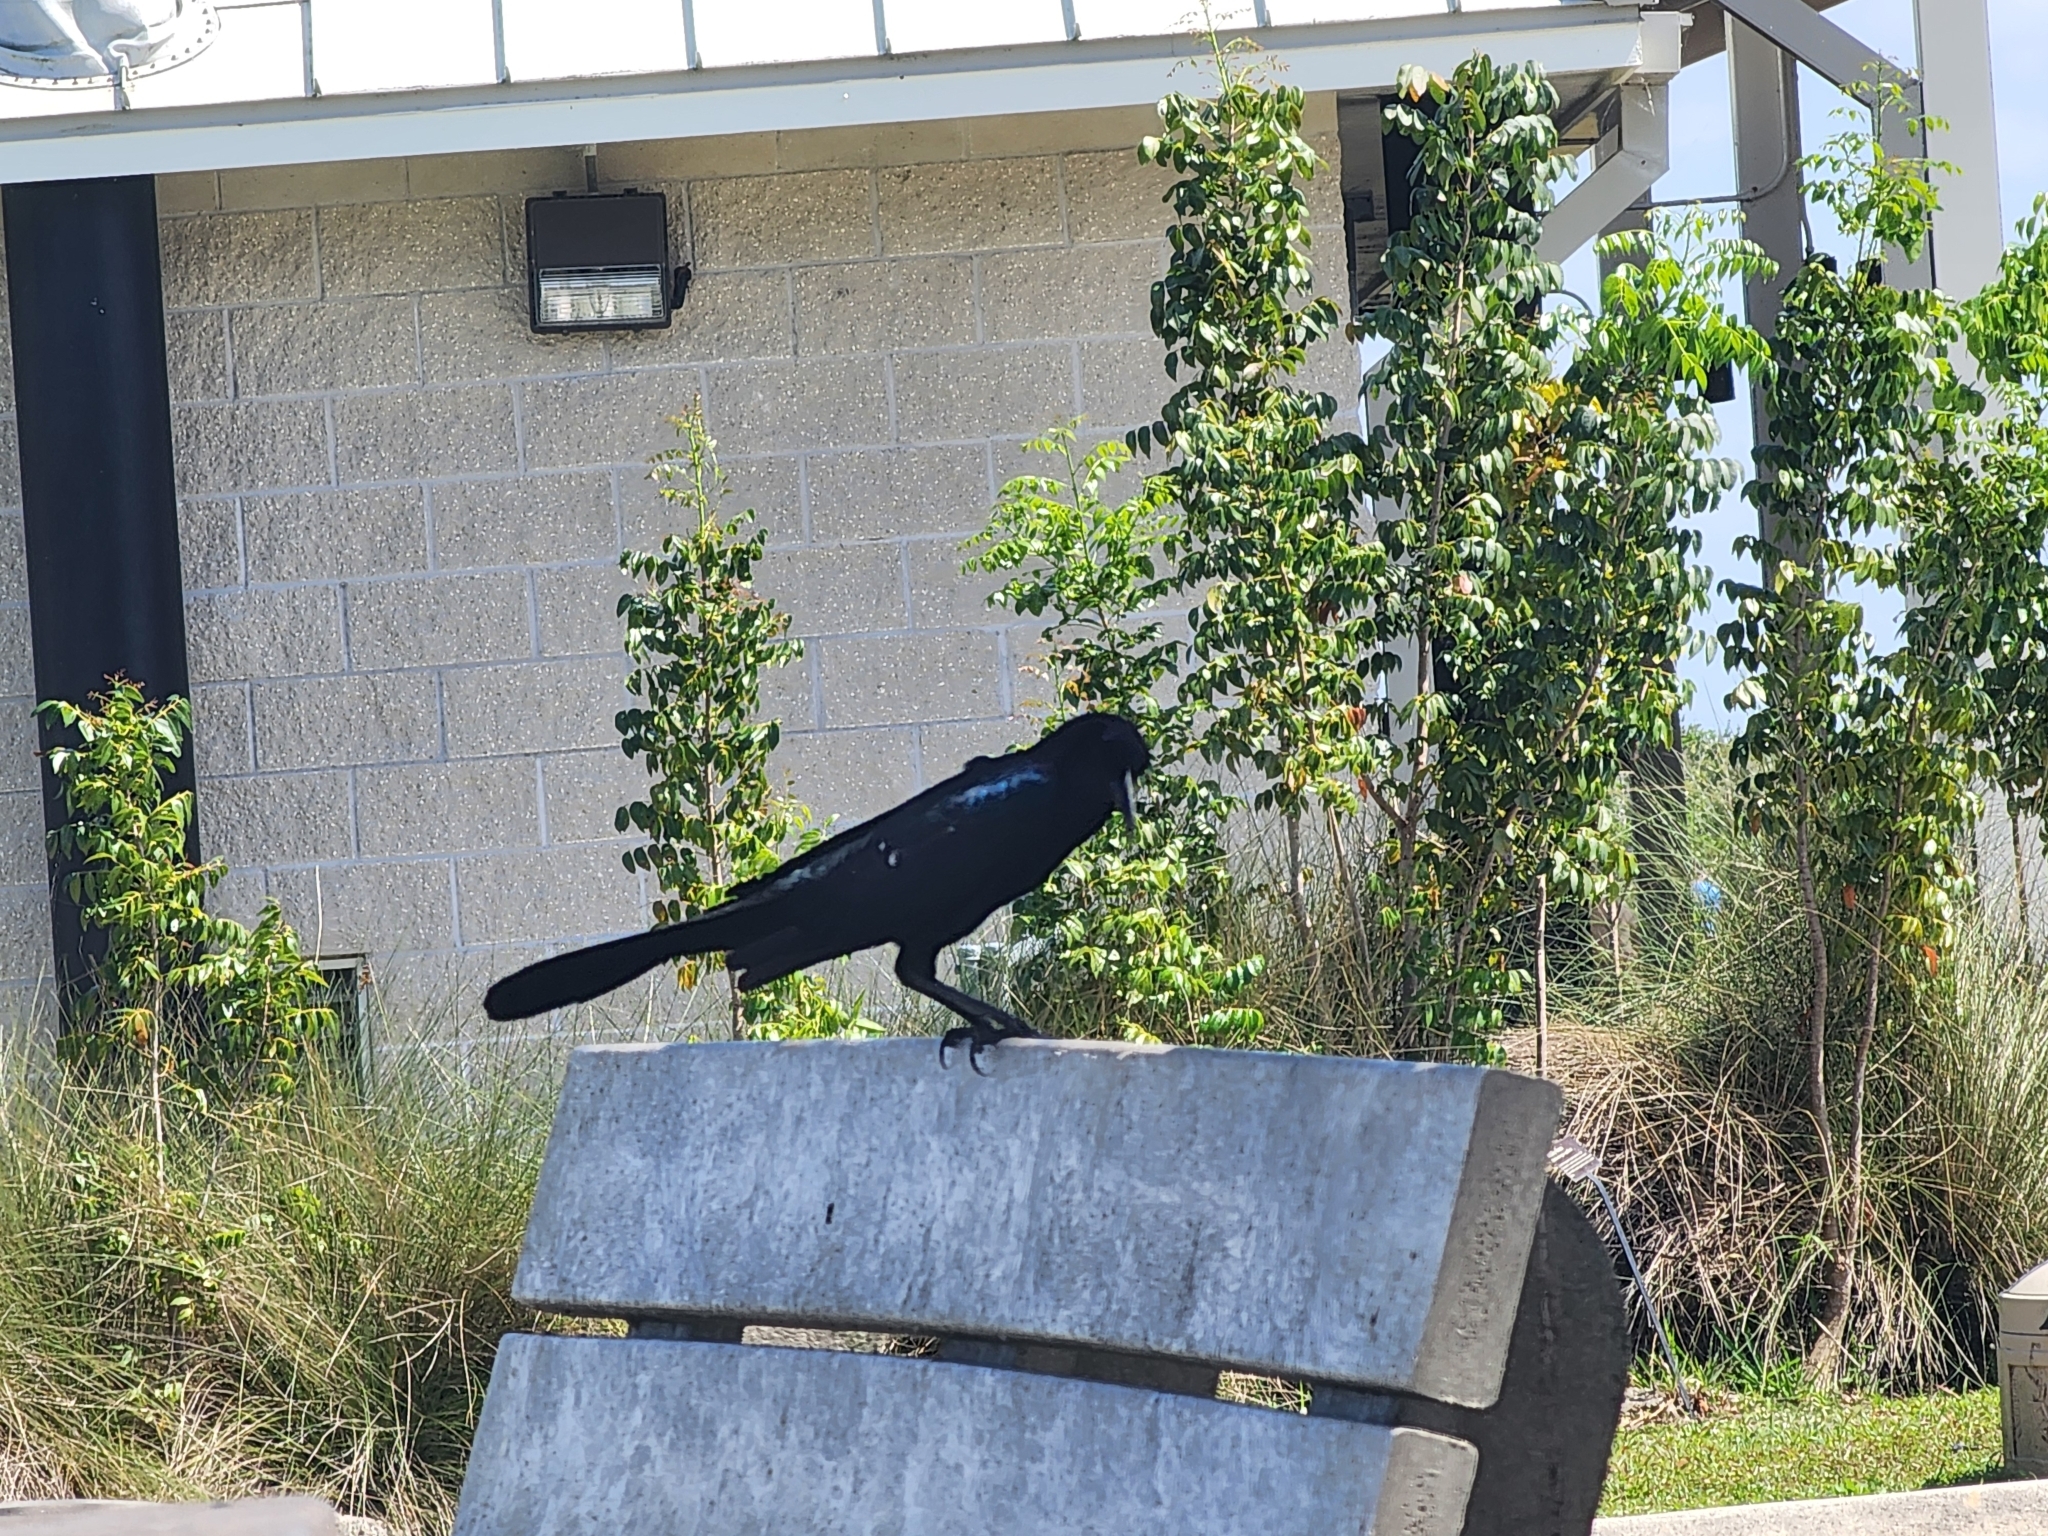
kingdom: Animalia
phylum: Chordata
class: Aves
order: Passeriformes
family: Icteridae
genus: Quiscalus
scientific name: Quiscalus major
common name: Boat-tailed grackle
